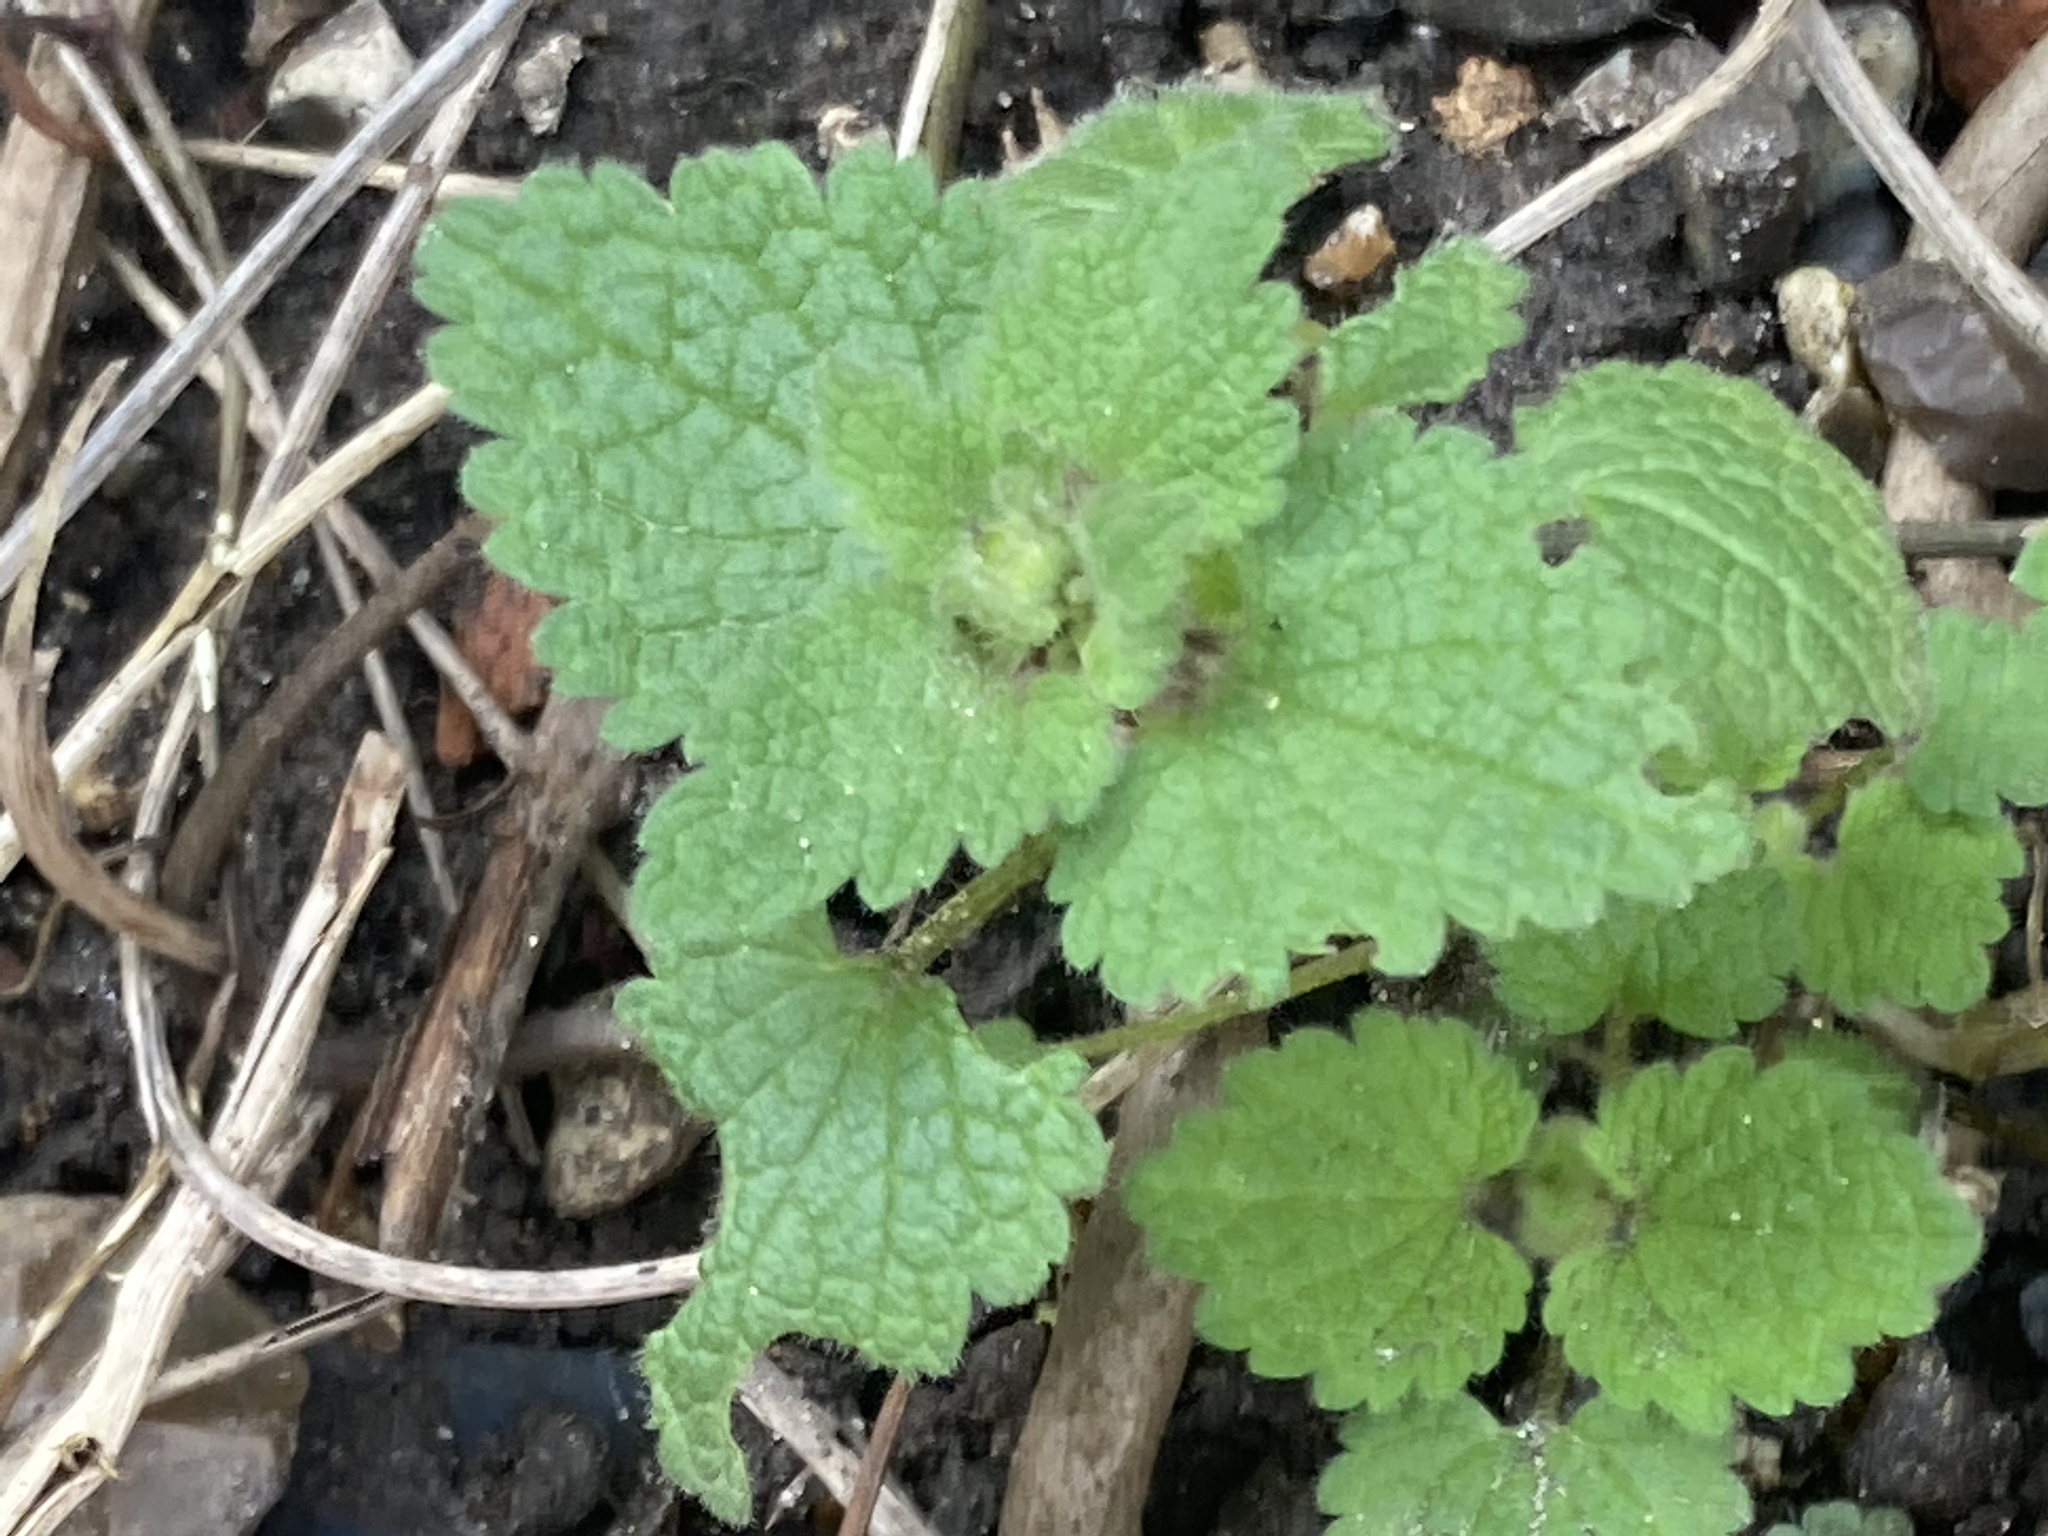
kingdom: Plantae
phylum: Tracheophyta
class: Magnoliopsida
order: Lamiales
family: Lamiaceae
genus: Lamium
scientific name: Lamium purpureum
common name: Red dead-nettle
